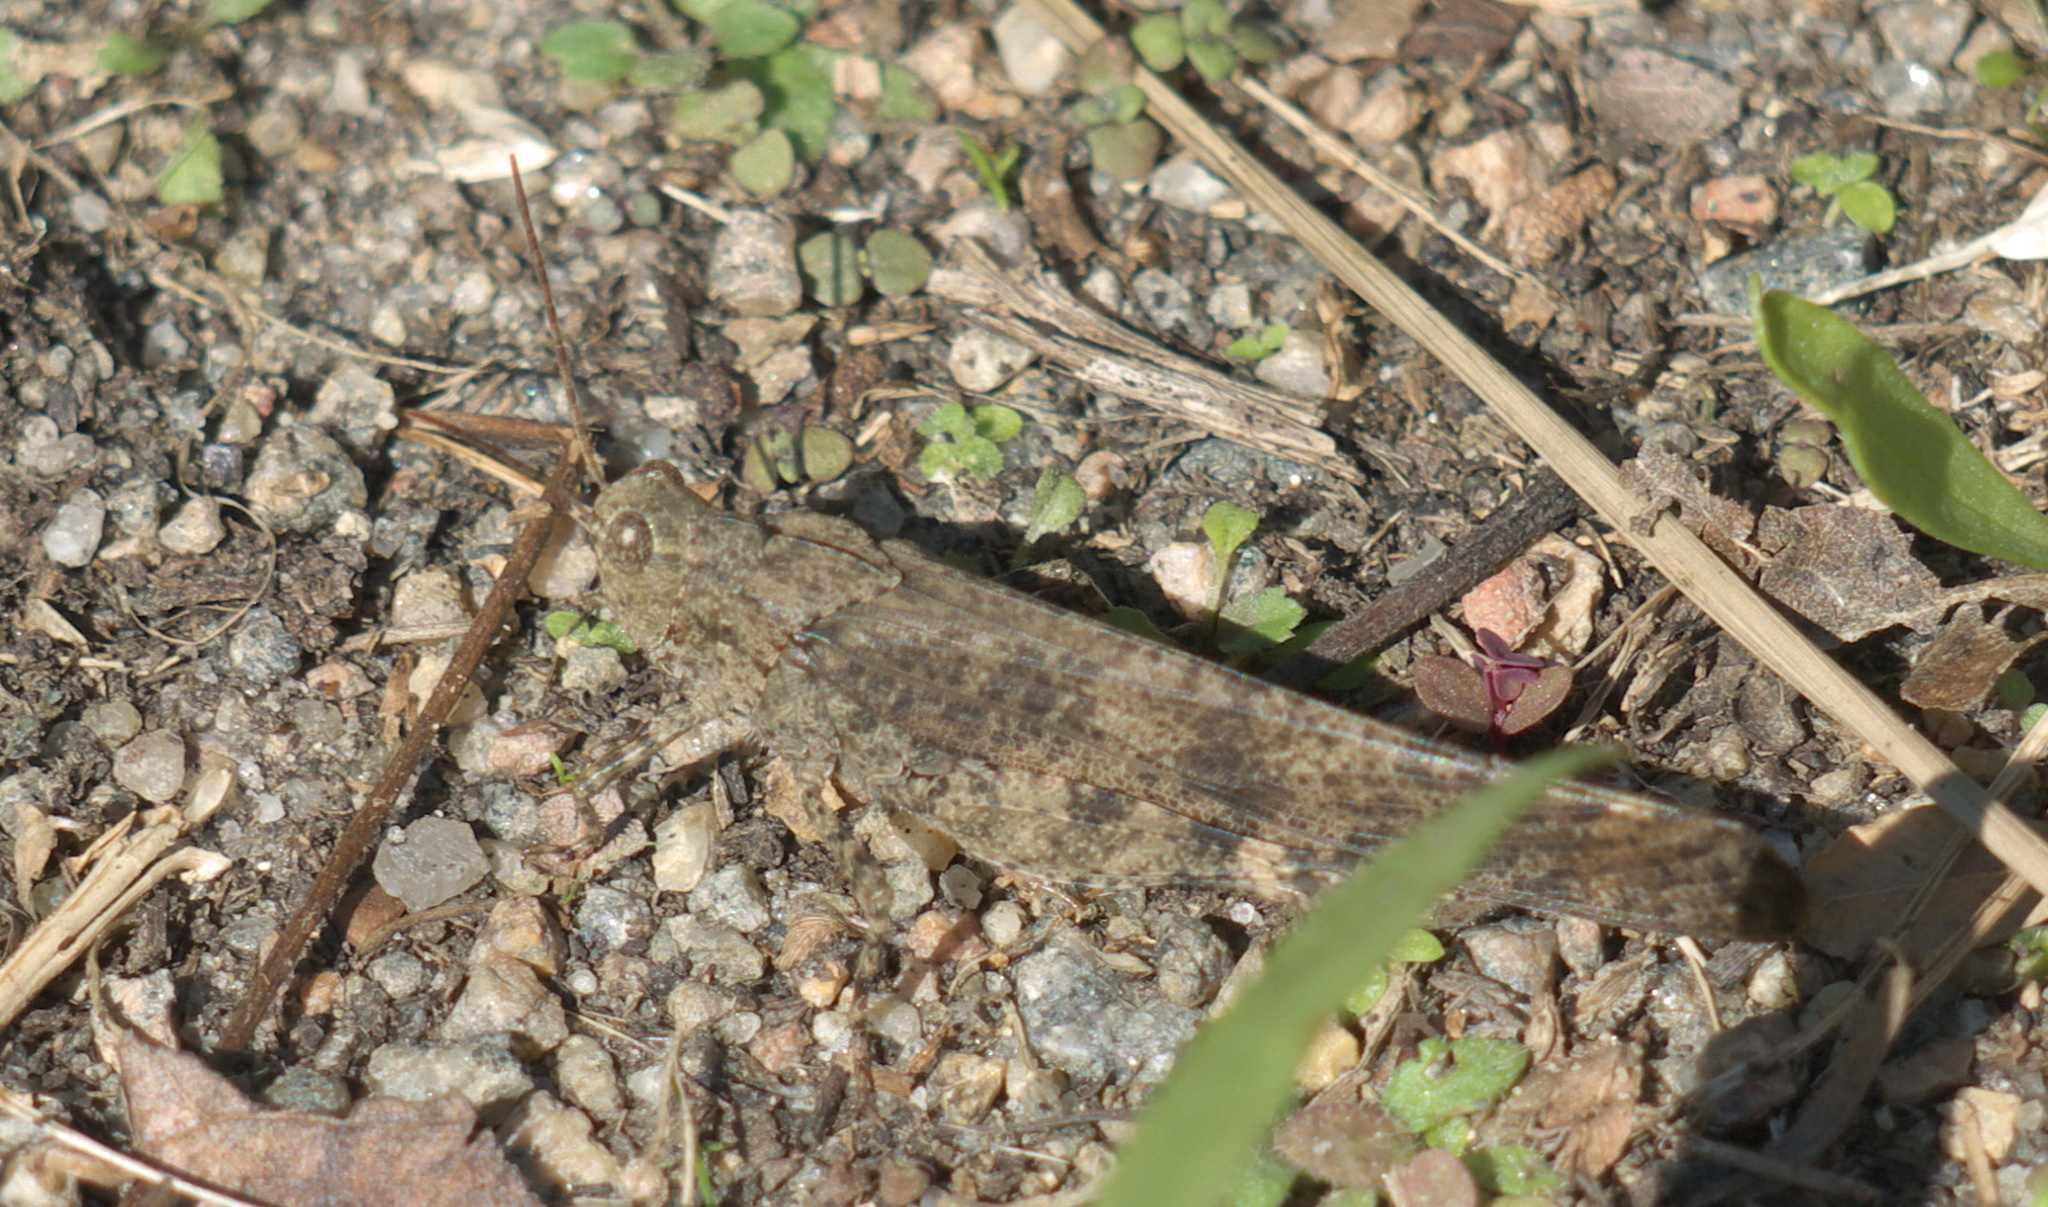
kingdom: Animalia
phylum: Arthropoda
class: Insecta
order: Orthoptera
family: Acrididae
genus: Dissosteira
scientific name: Dissosteira carolina
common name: Carolina grasshopper
